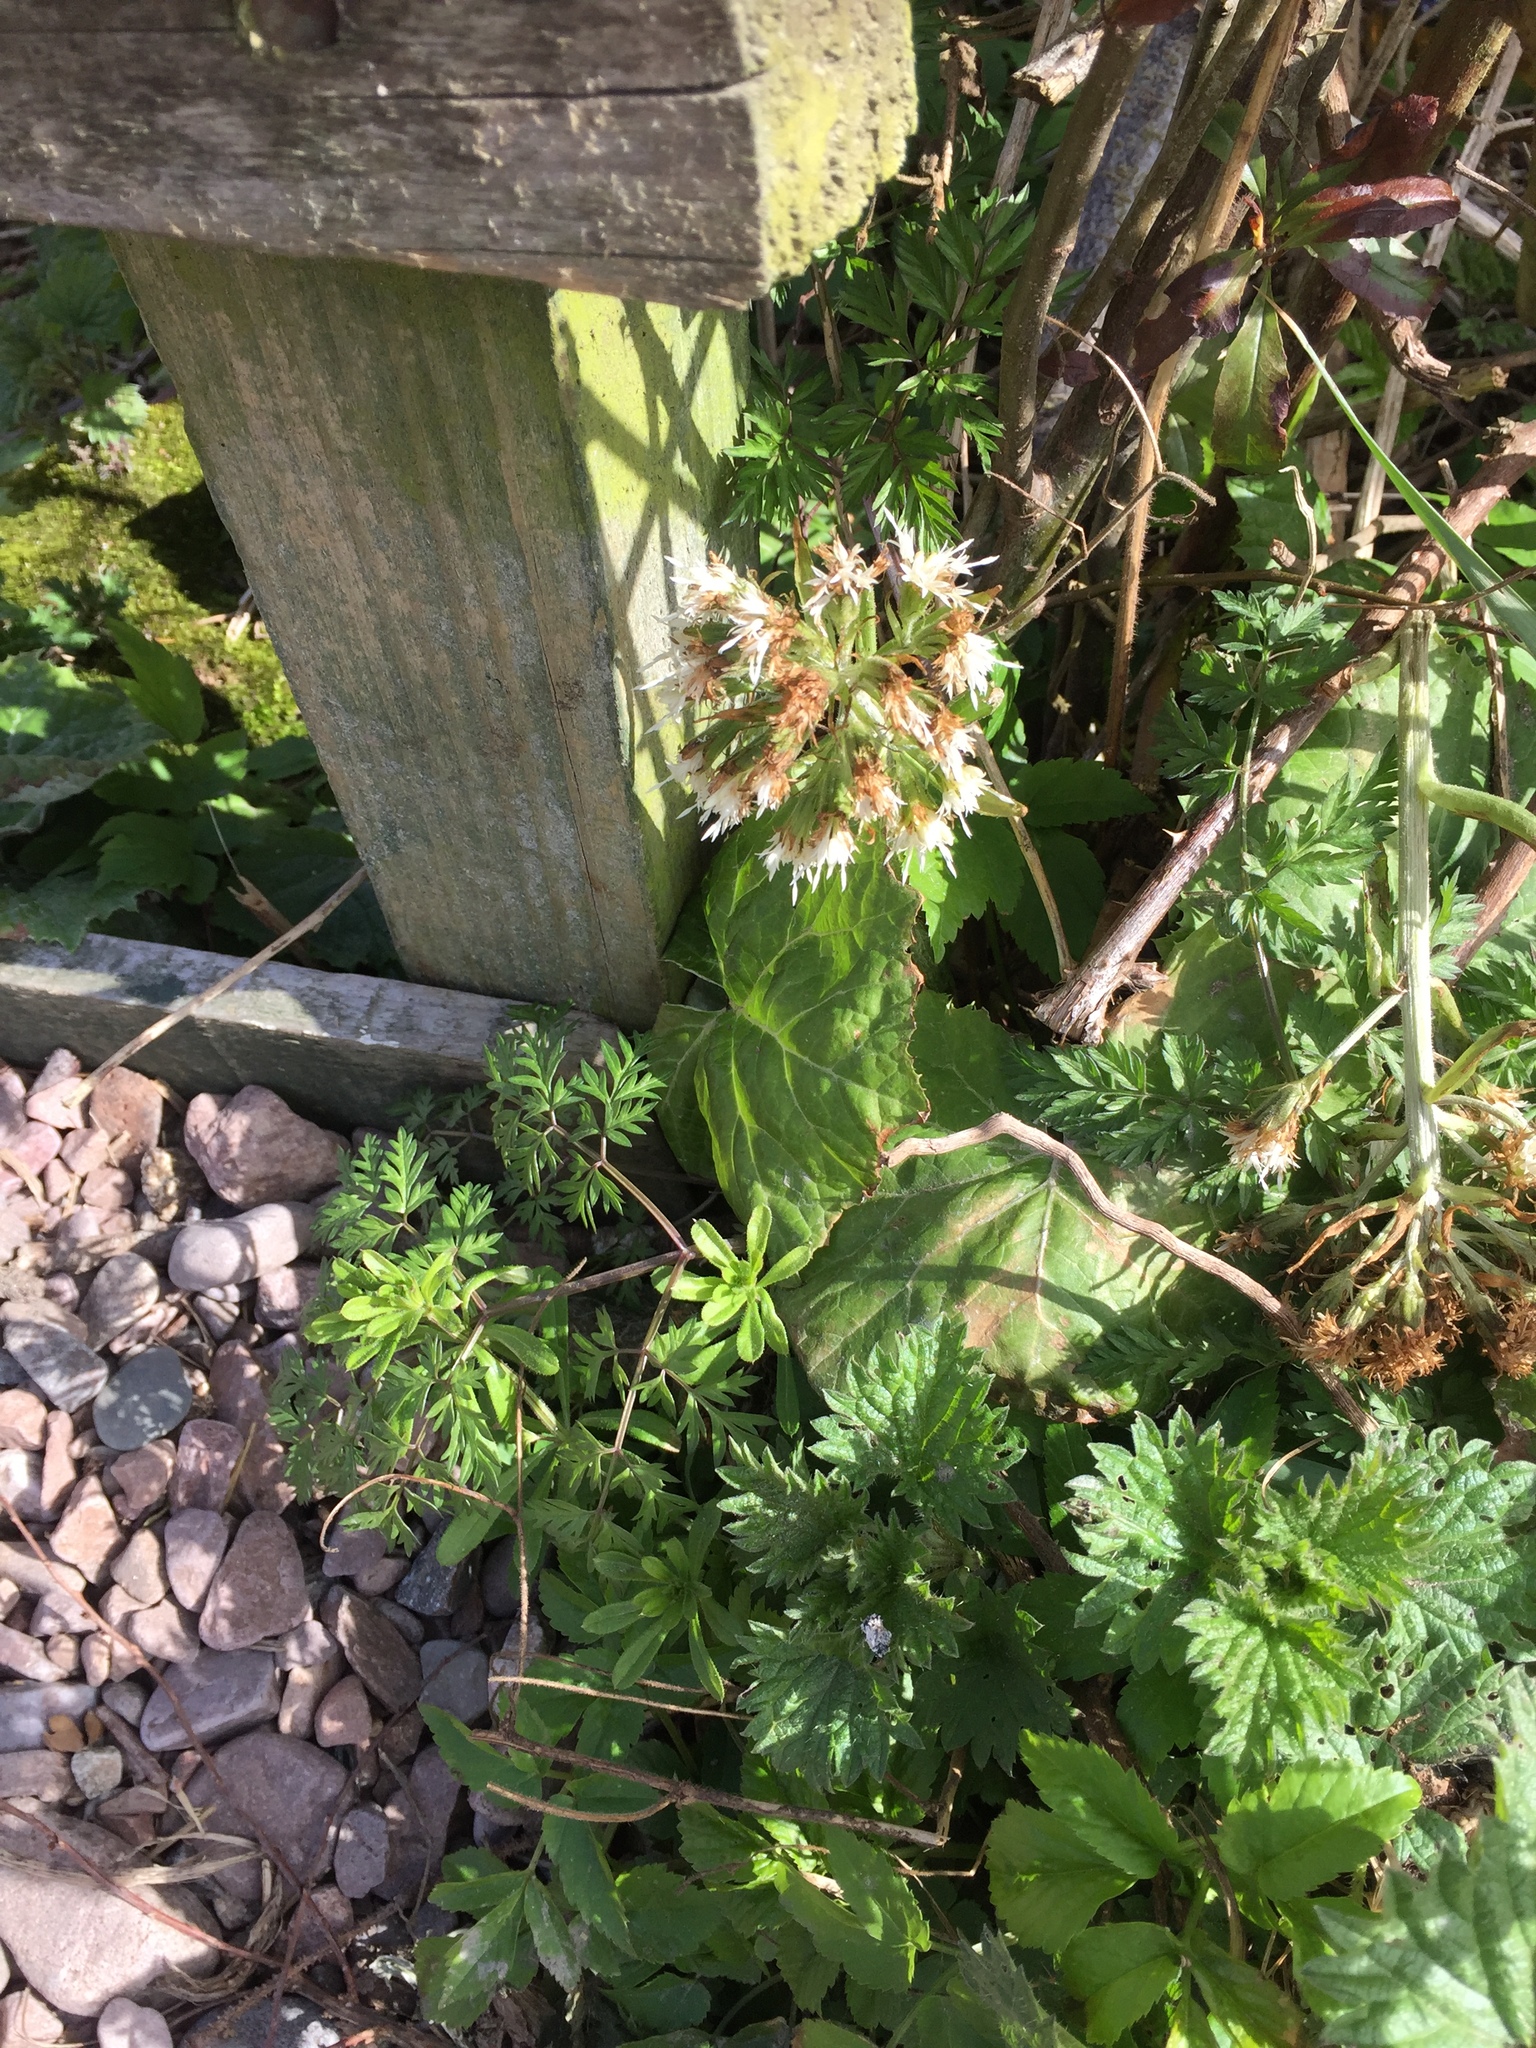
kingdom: Plantae
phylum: Tracheophyta
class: Magnoliopsida
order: Asterales
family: Asteraceae
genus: Petasites
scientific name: Petasites albus
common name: White butterbur
